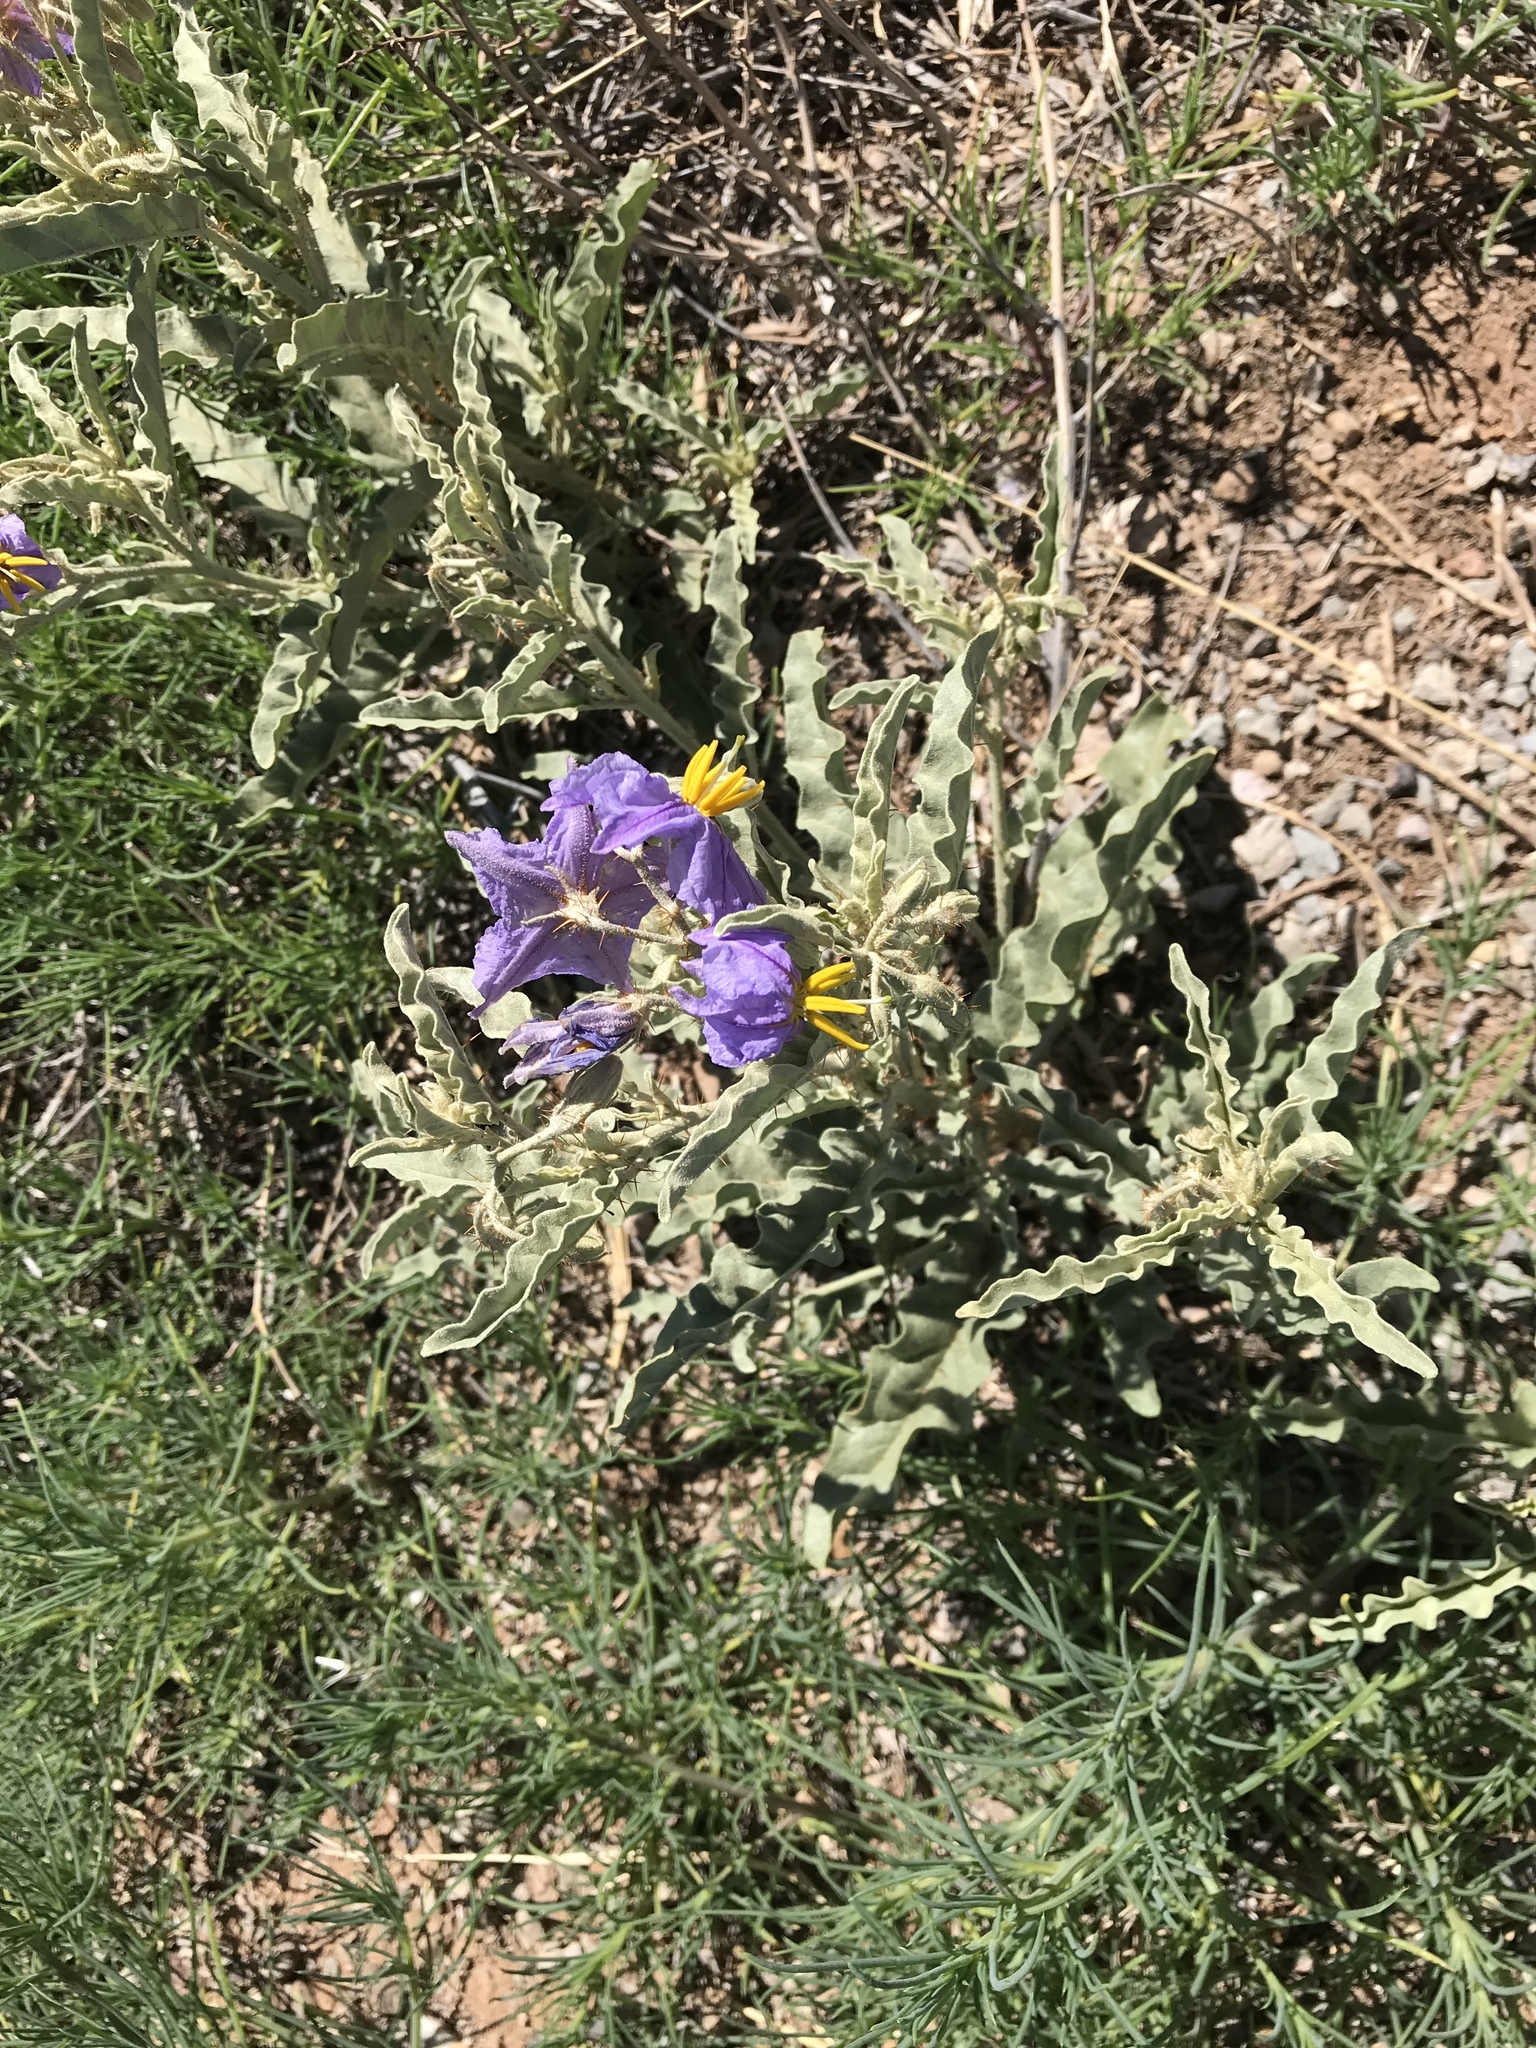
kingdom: Plantae
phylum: Tracheophyta
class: Magnoliopsida
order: Solanales
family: Solanaceae
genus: Solanum
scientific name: Solanum elaeagnifolium
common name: Silverleaf nightshade
